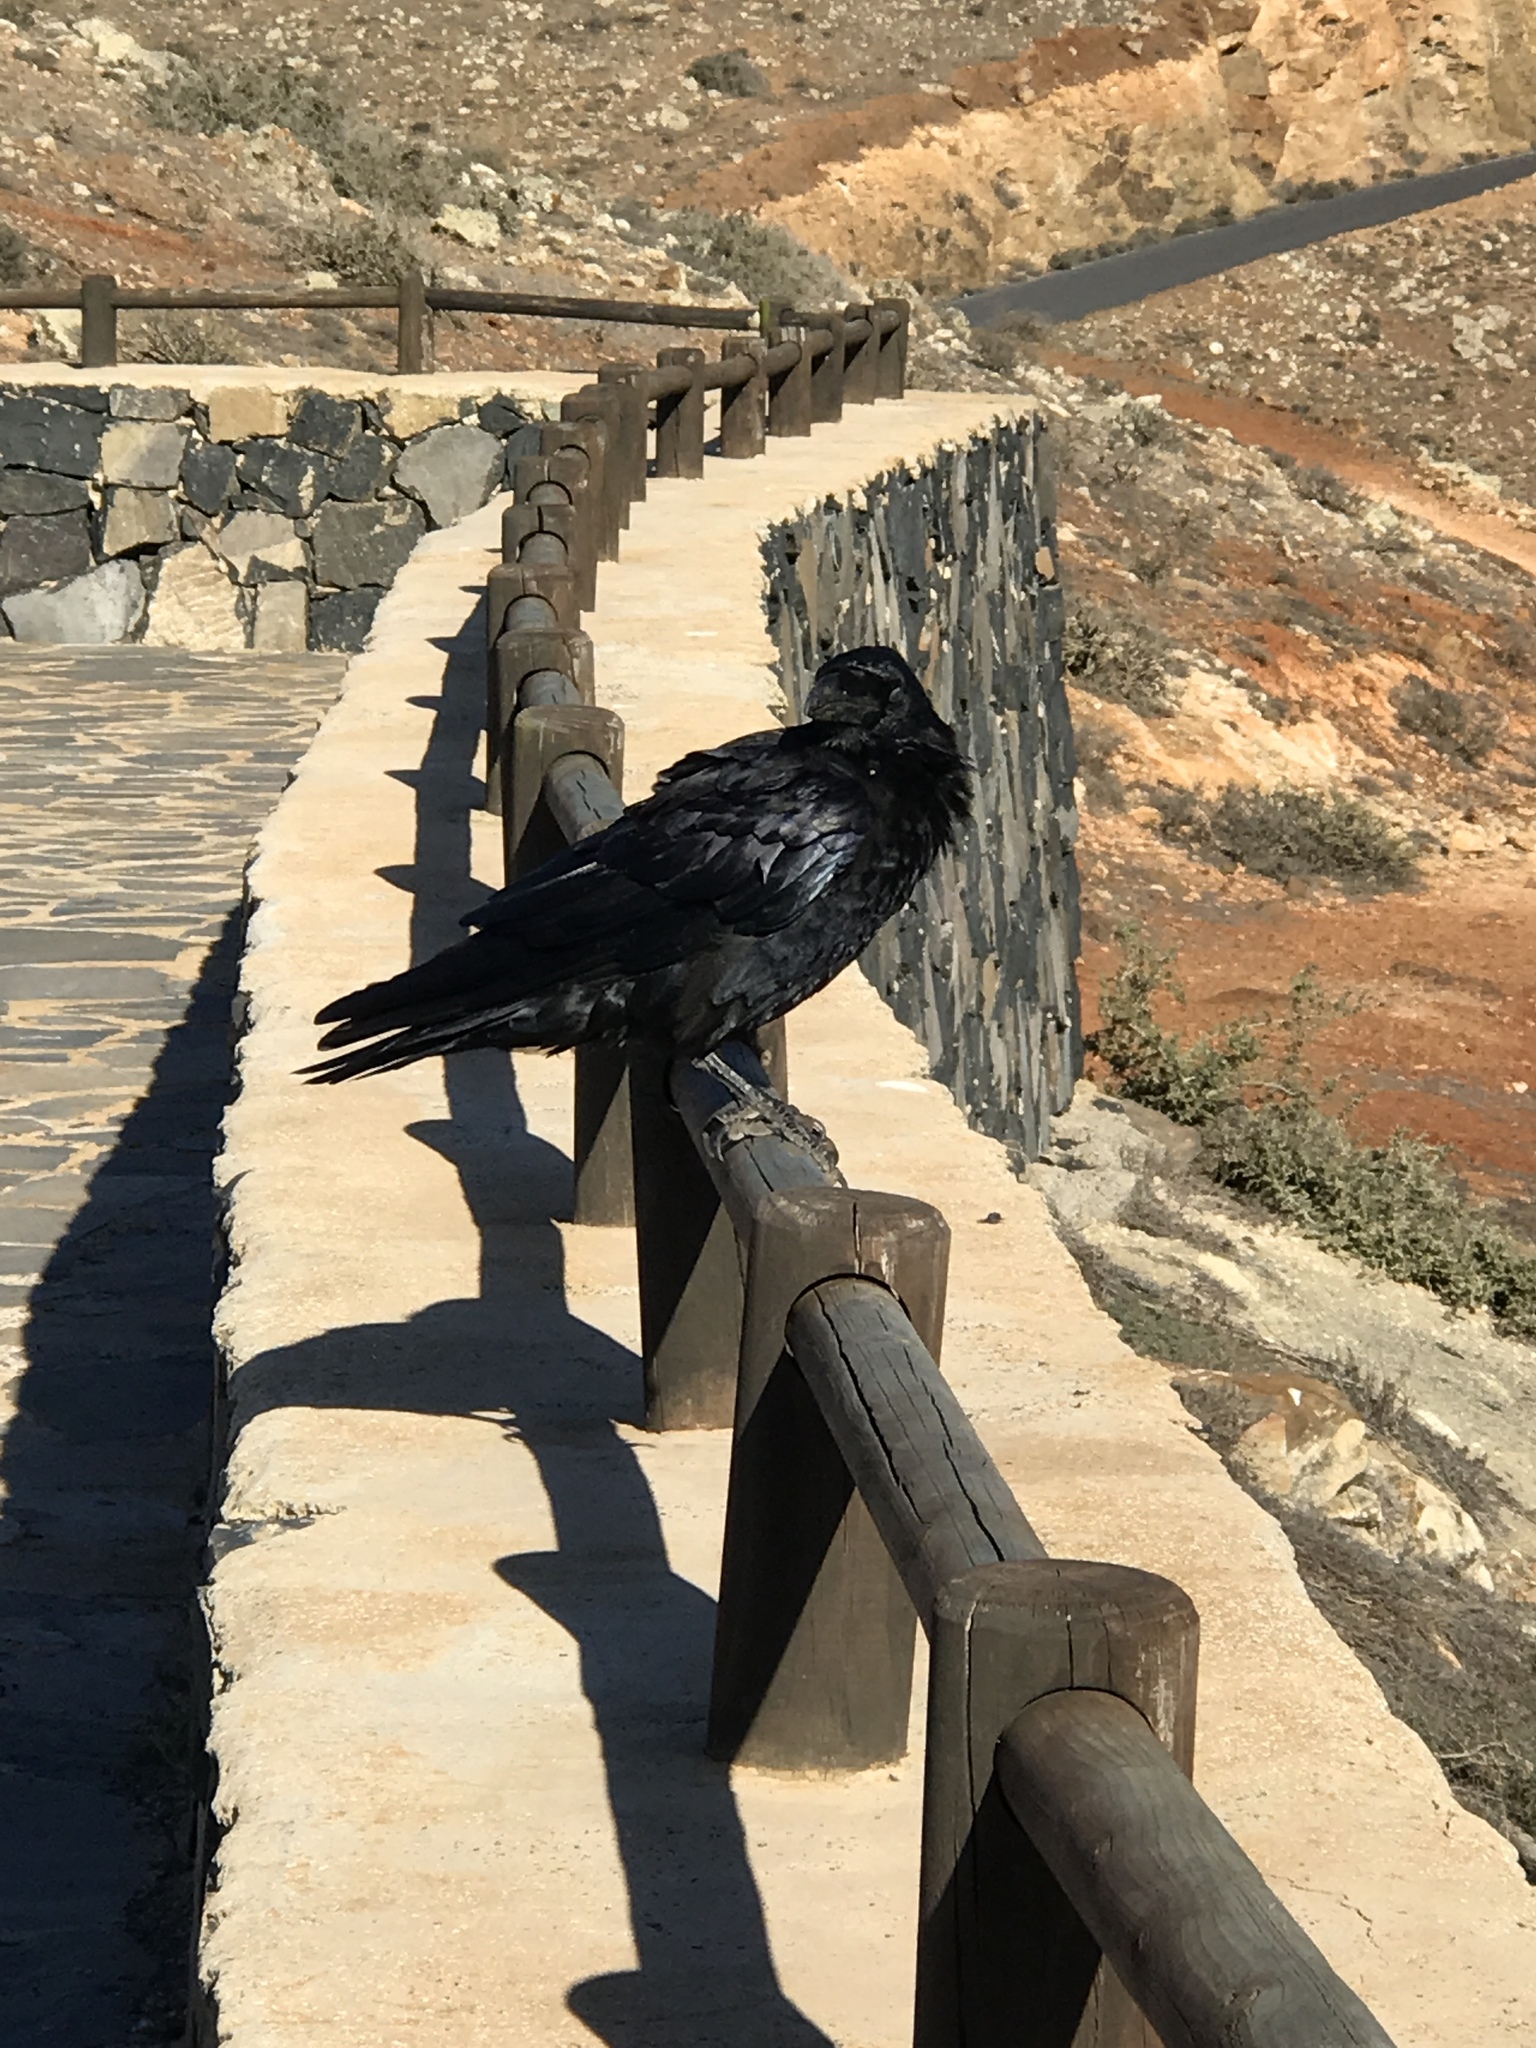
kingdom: Animalia
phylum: Chordata
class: Aves
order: Passeriformes
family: Corvidae
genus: Corvus
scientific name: Corvus corax
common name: Common raven
